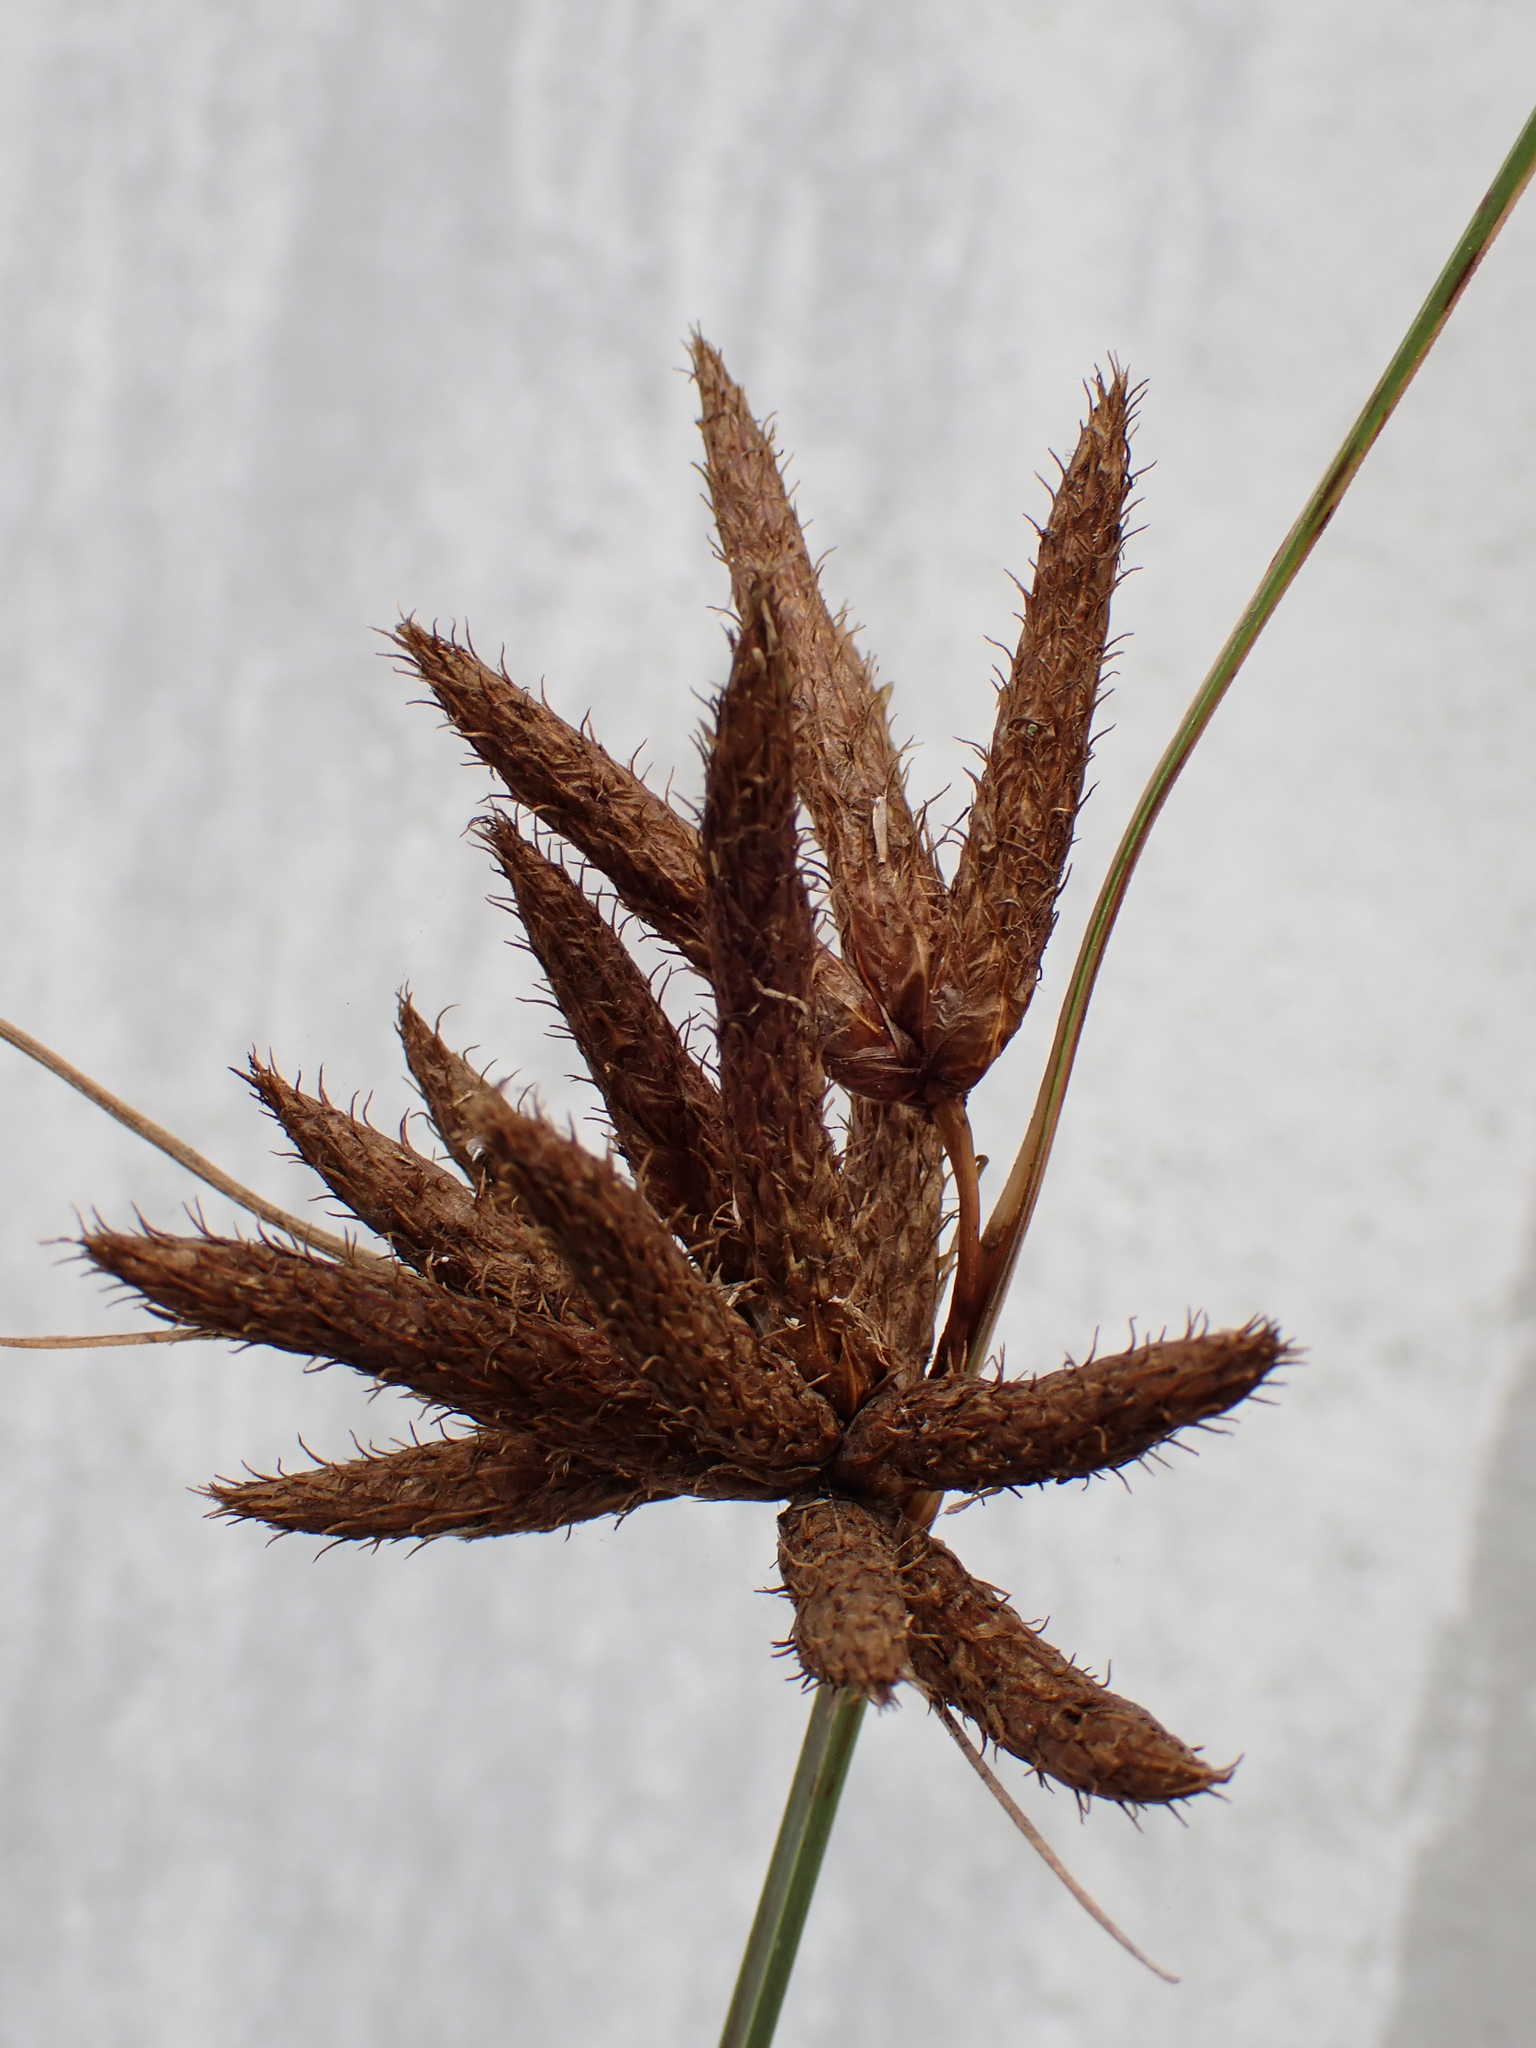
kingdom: Plantae
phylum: Tracheophyta
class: Liliopsida
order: Poales
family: Cyperaceae
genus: Bolboschoenus
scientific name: Bolboschoenus maritimus
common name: Sea club-rush
